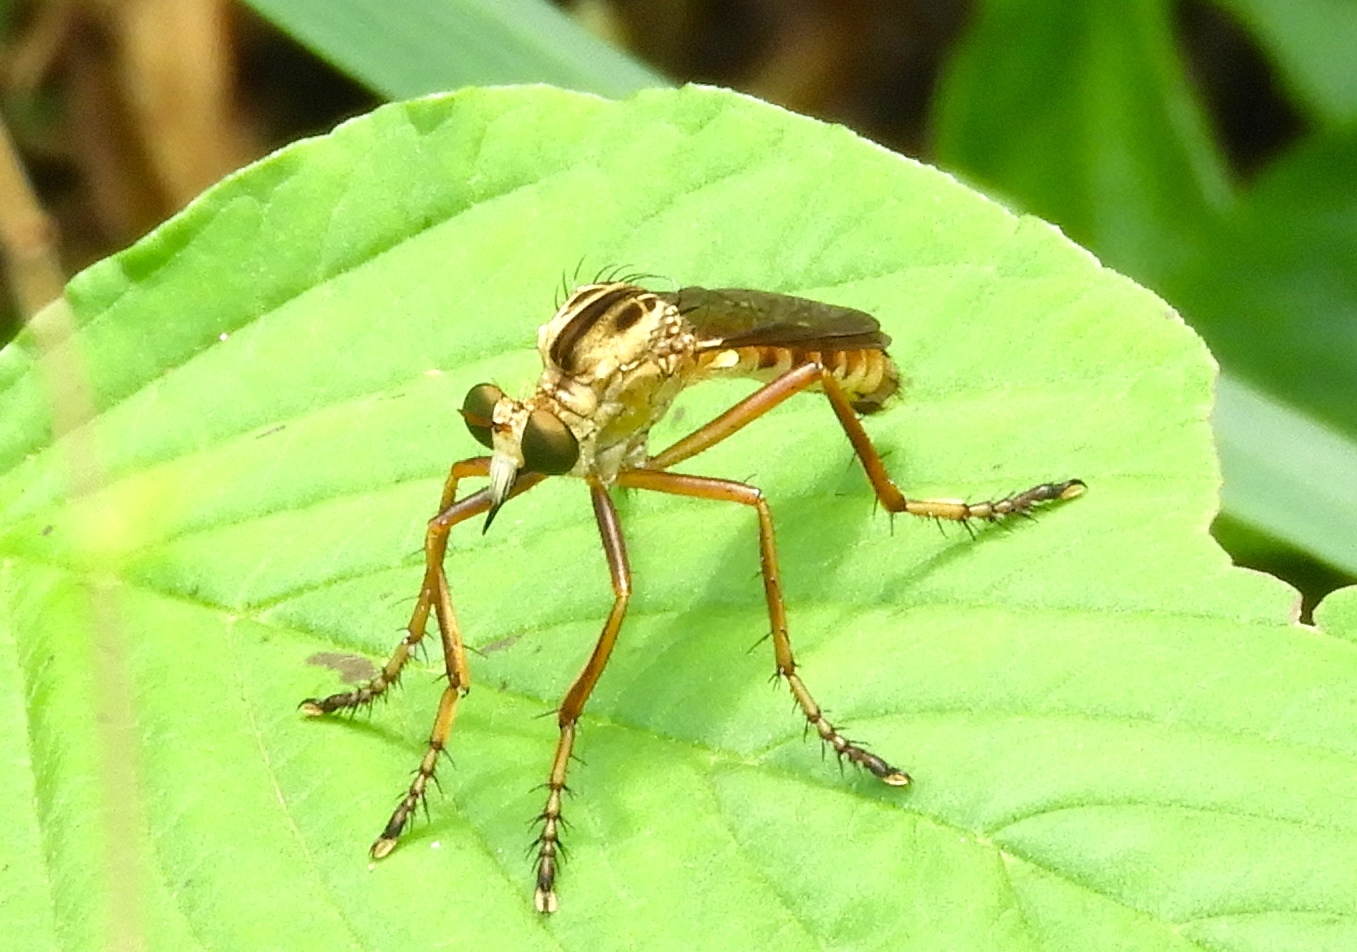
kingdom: Animalia
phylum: Arthropoda
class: Insecta
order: Diptera
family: Asilidae
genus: Diogmites
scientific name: Diogmites
